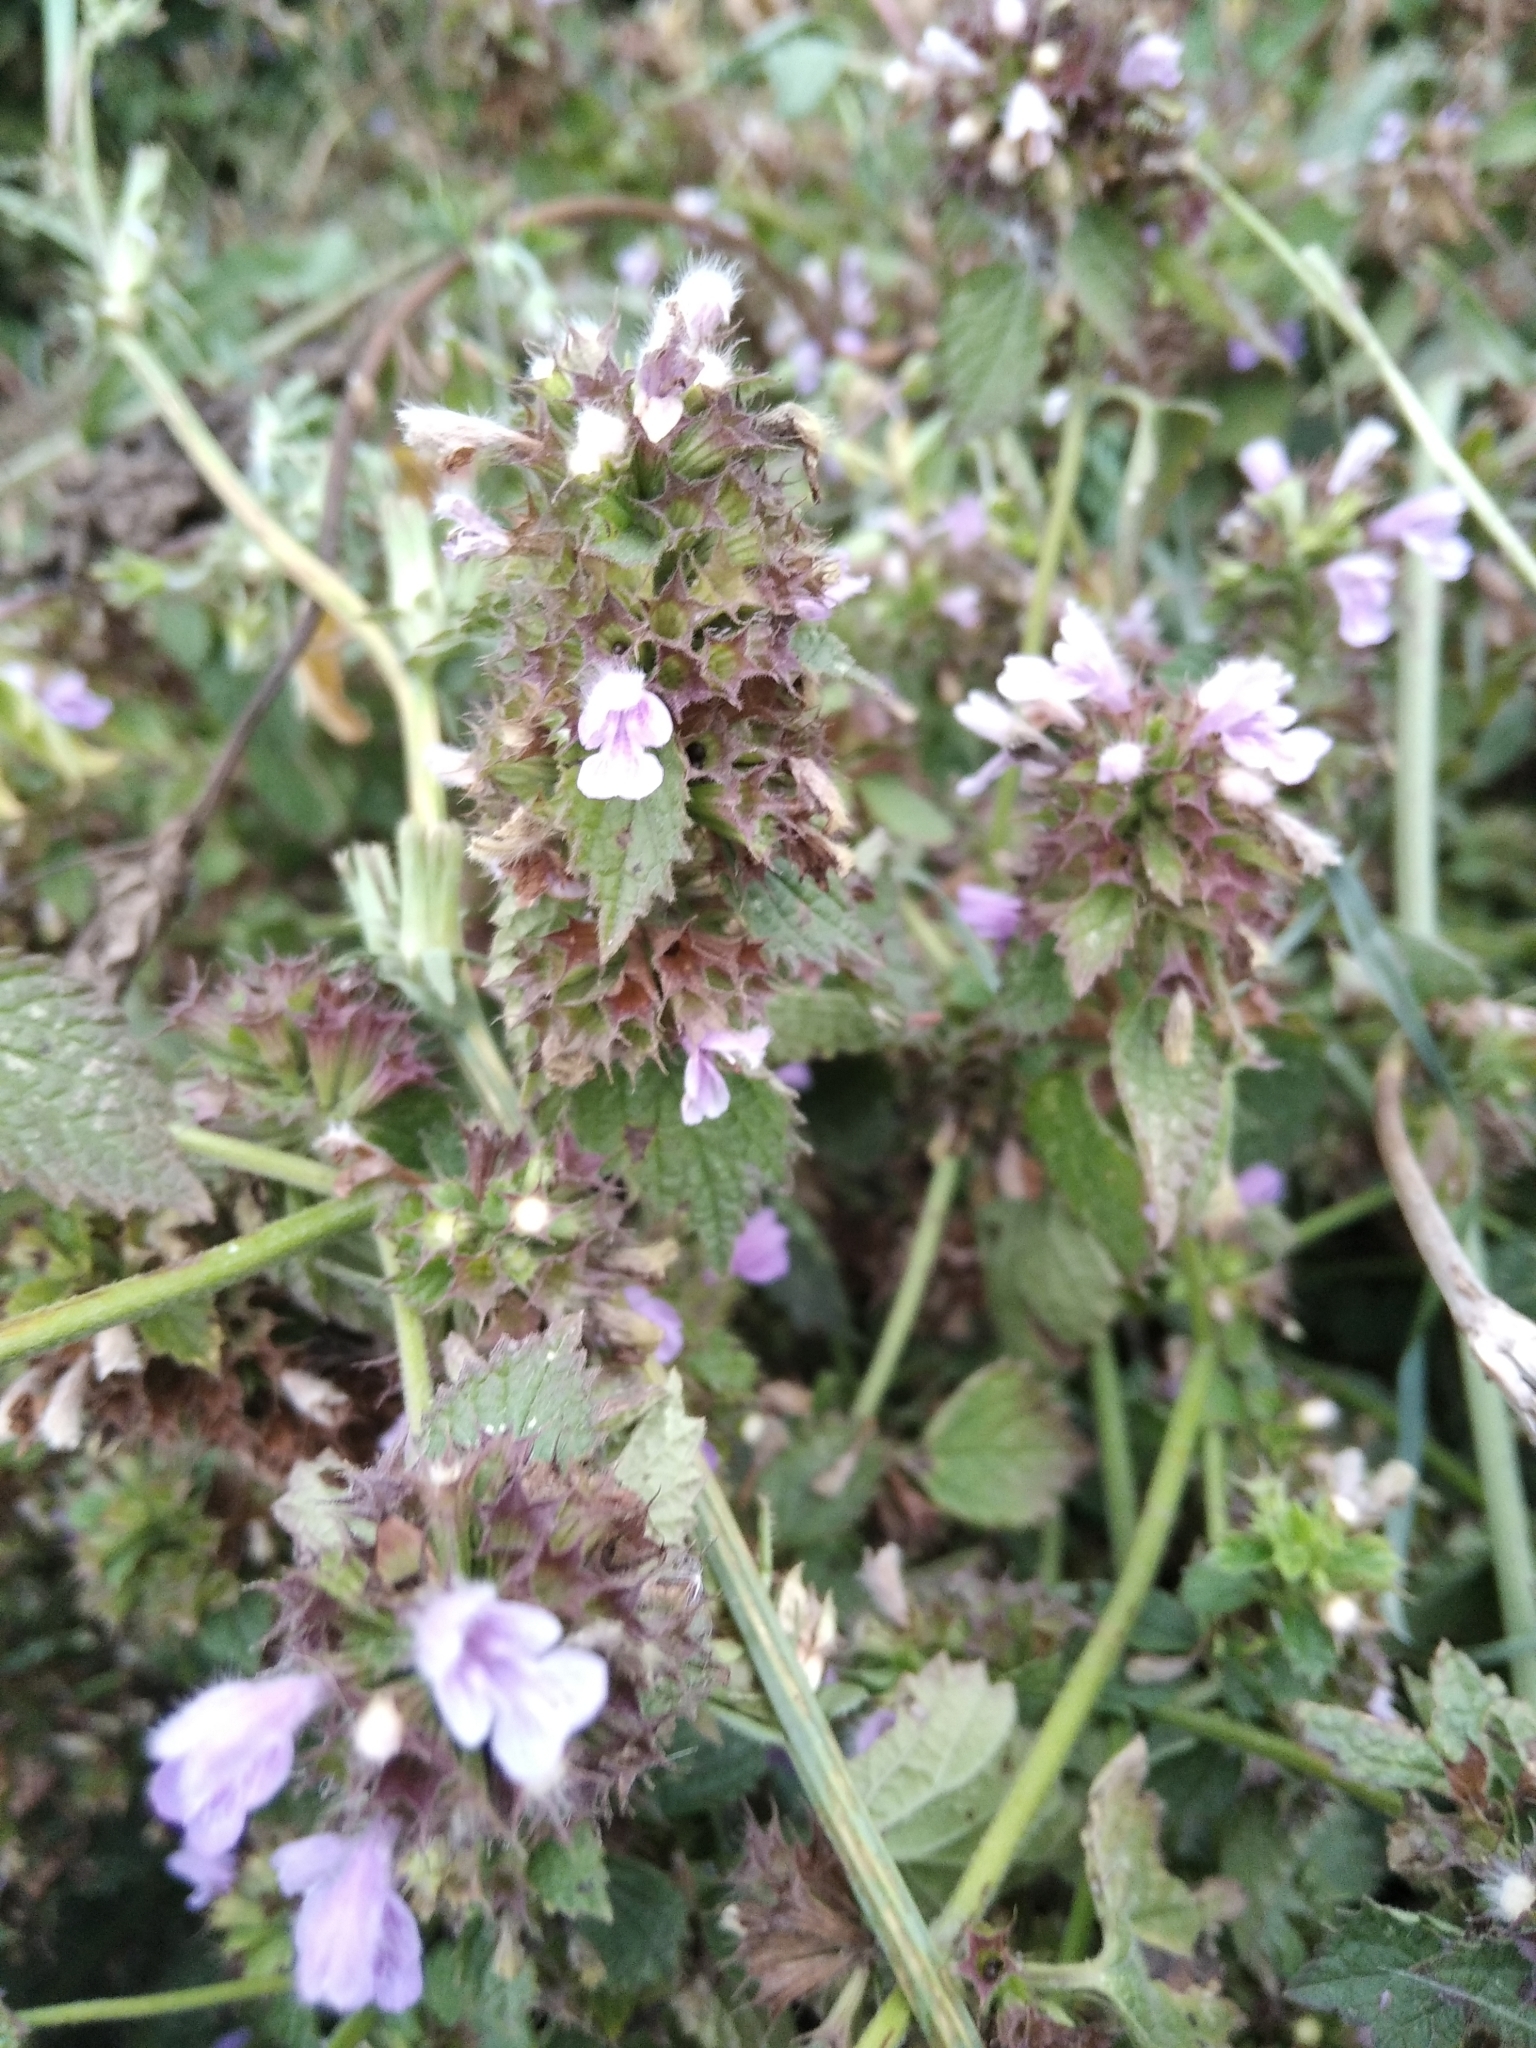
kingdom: Plantae
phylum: Tracheophyta
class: Magnoliopsida
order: Lamiales
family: Lamiaceae
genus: Ballota
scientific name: Ballota nigra
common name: Black horehound
